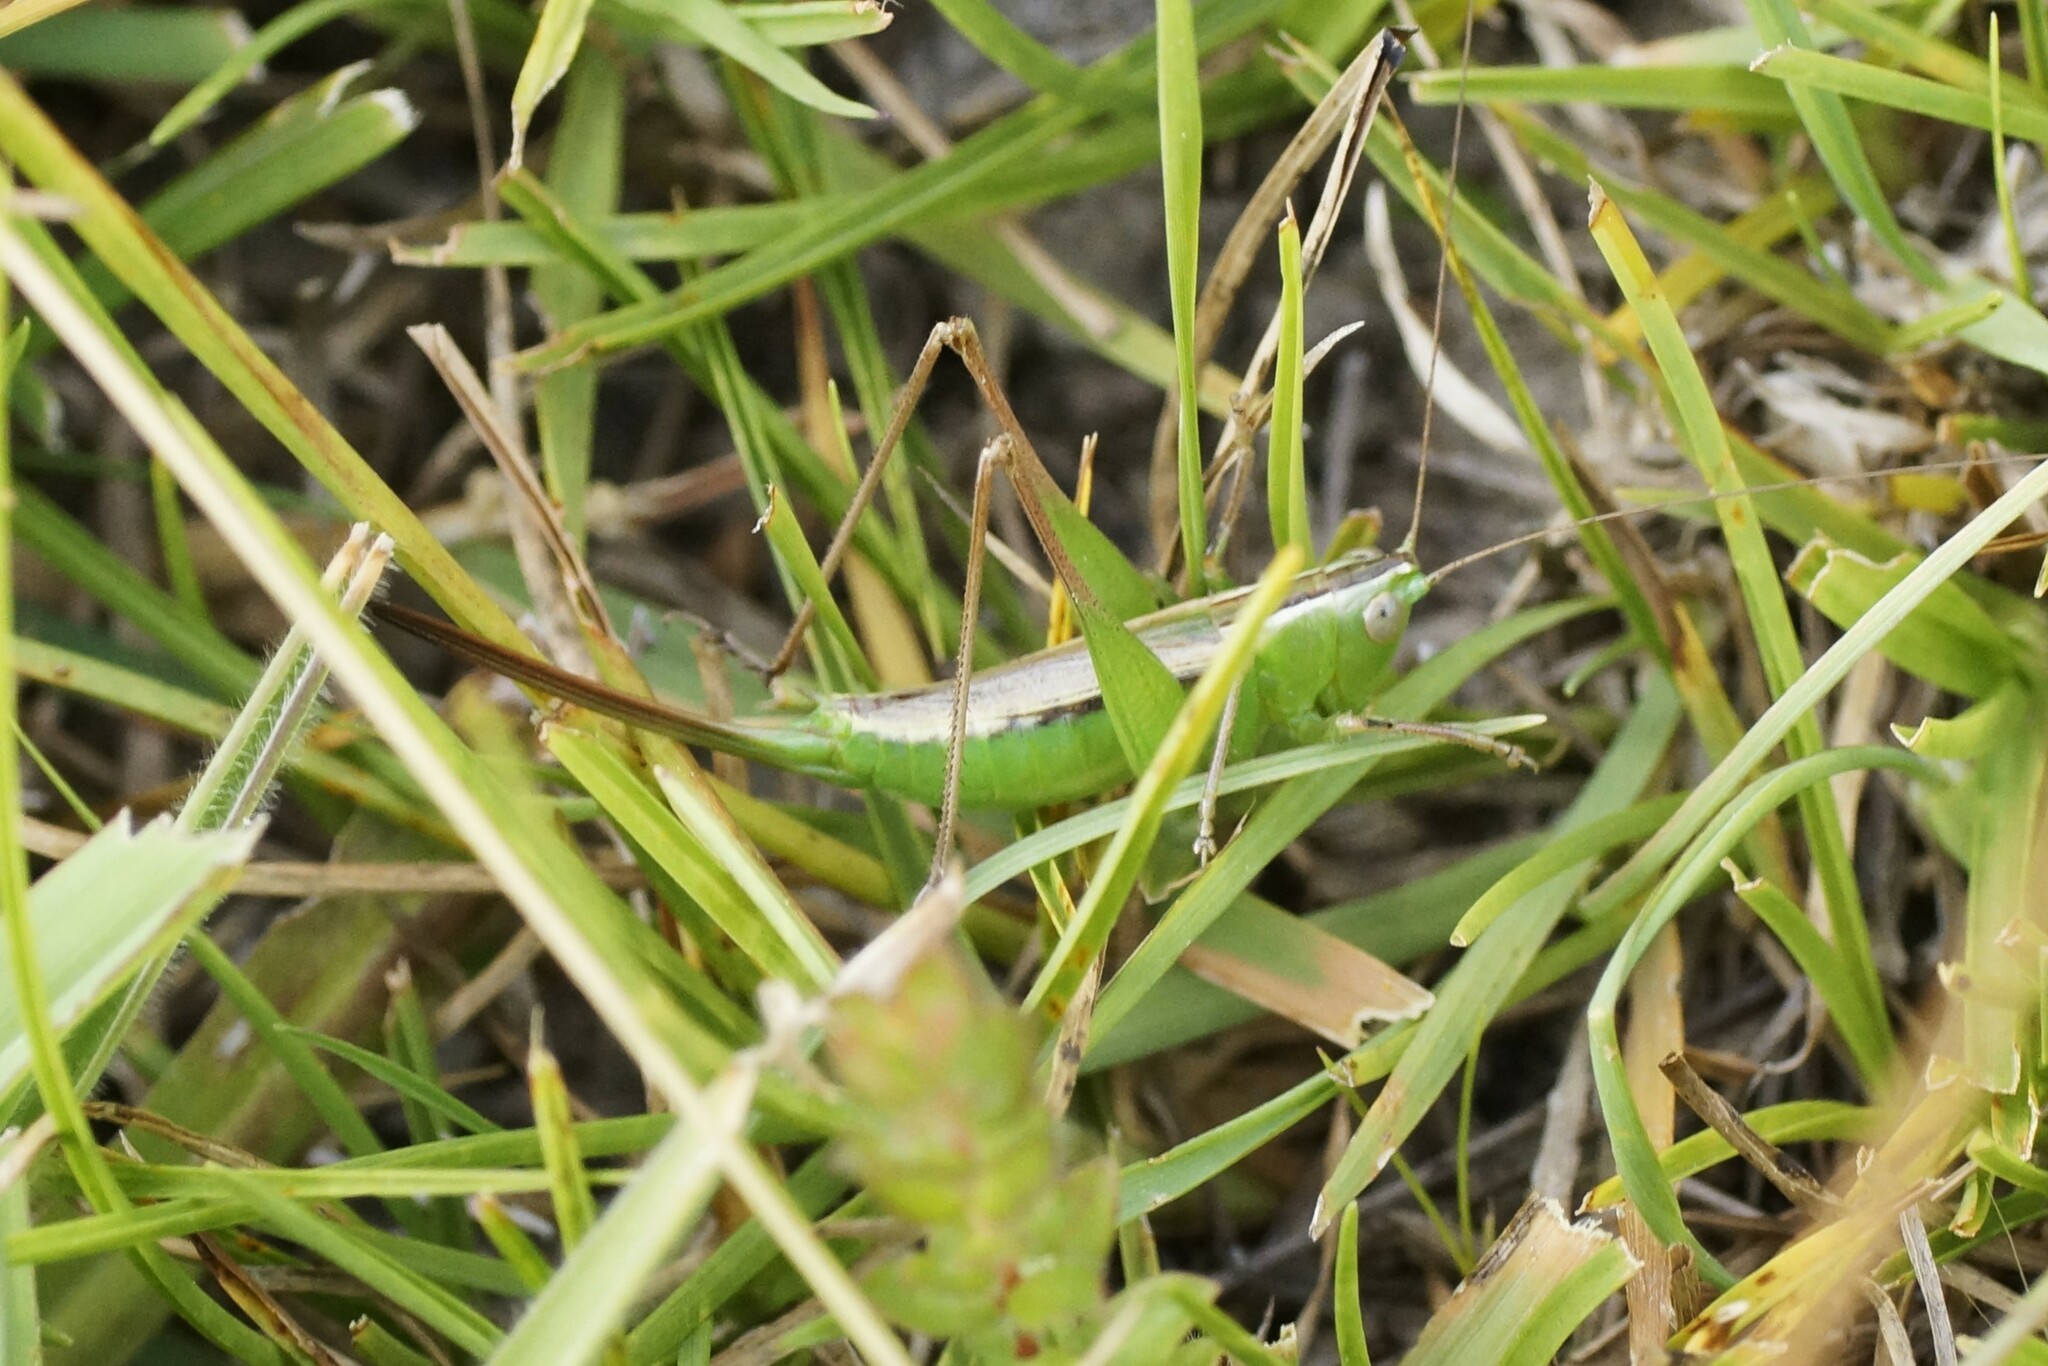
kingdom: Animalia
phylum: Arthropoda
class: Insecta
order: Orthoptera
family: Tettigoniidae
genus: Conocephalus
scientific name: Conocephalus albescens
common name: Whitish meadow katydid
